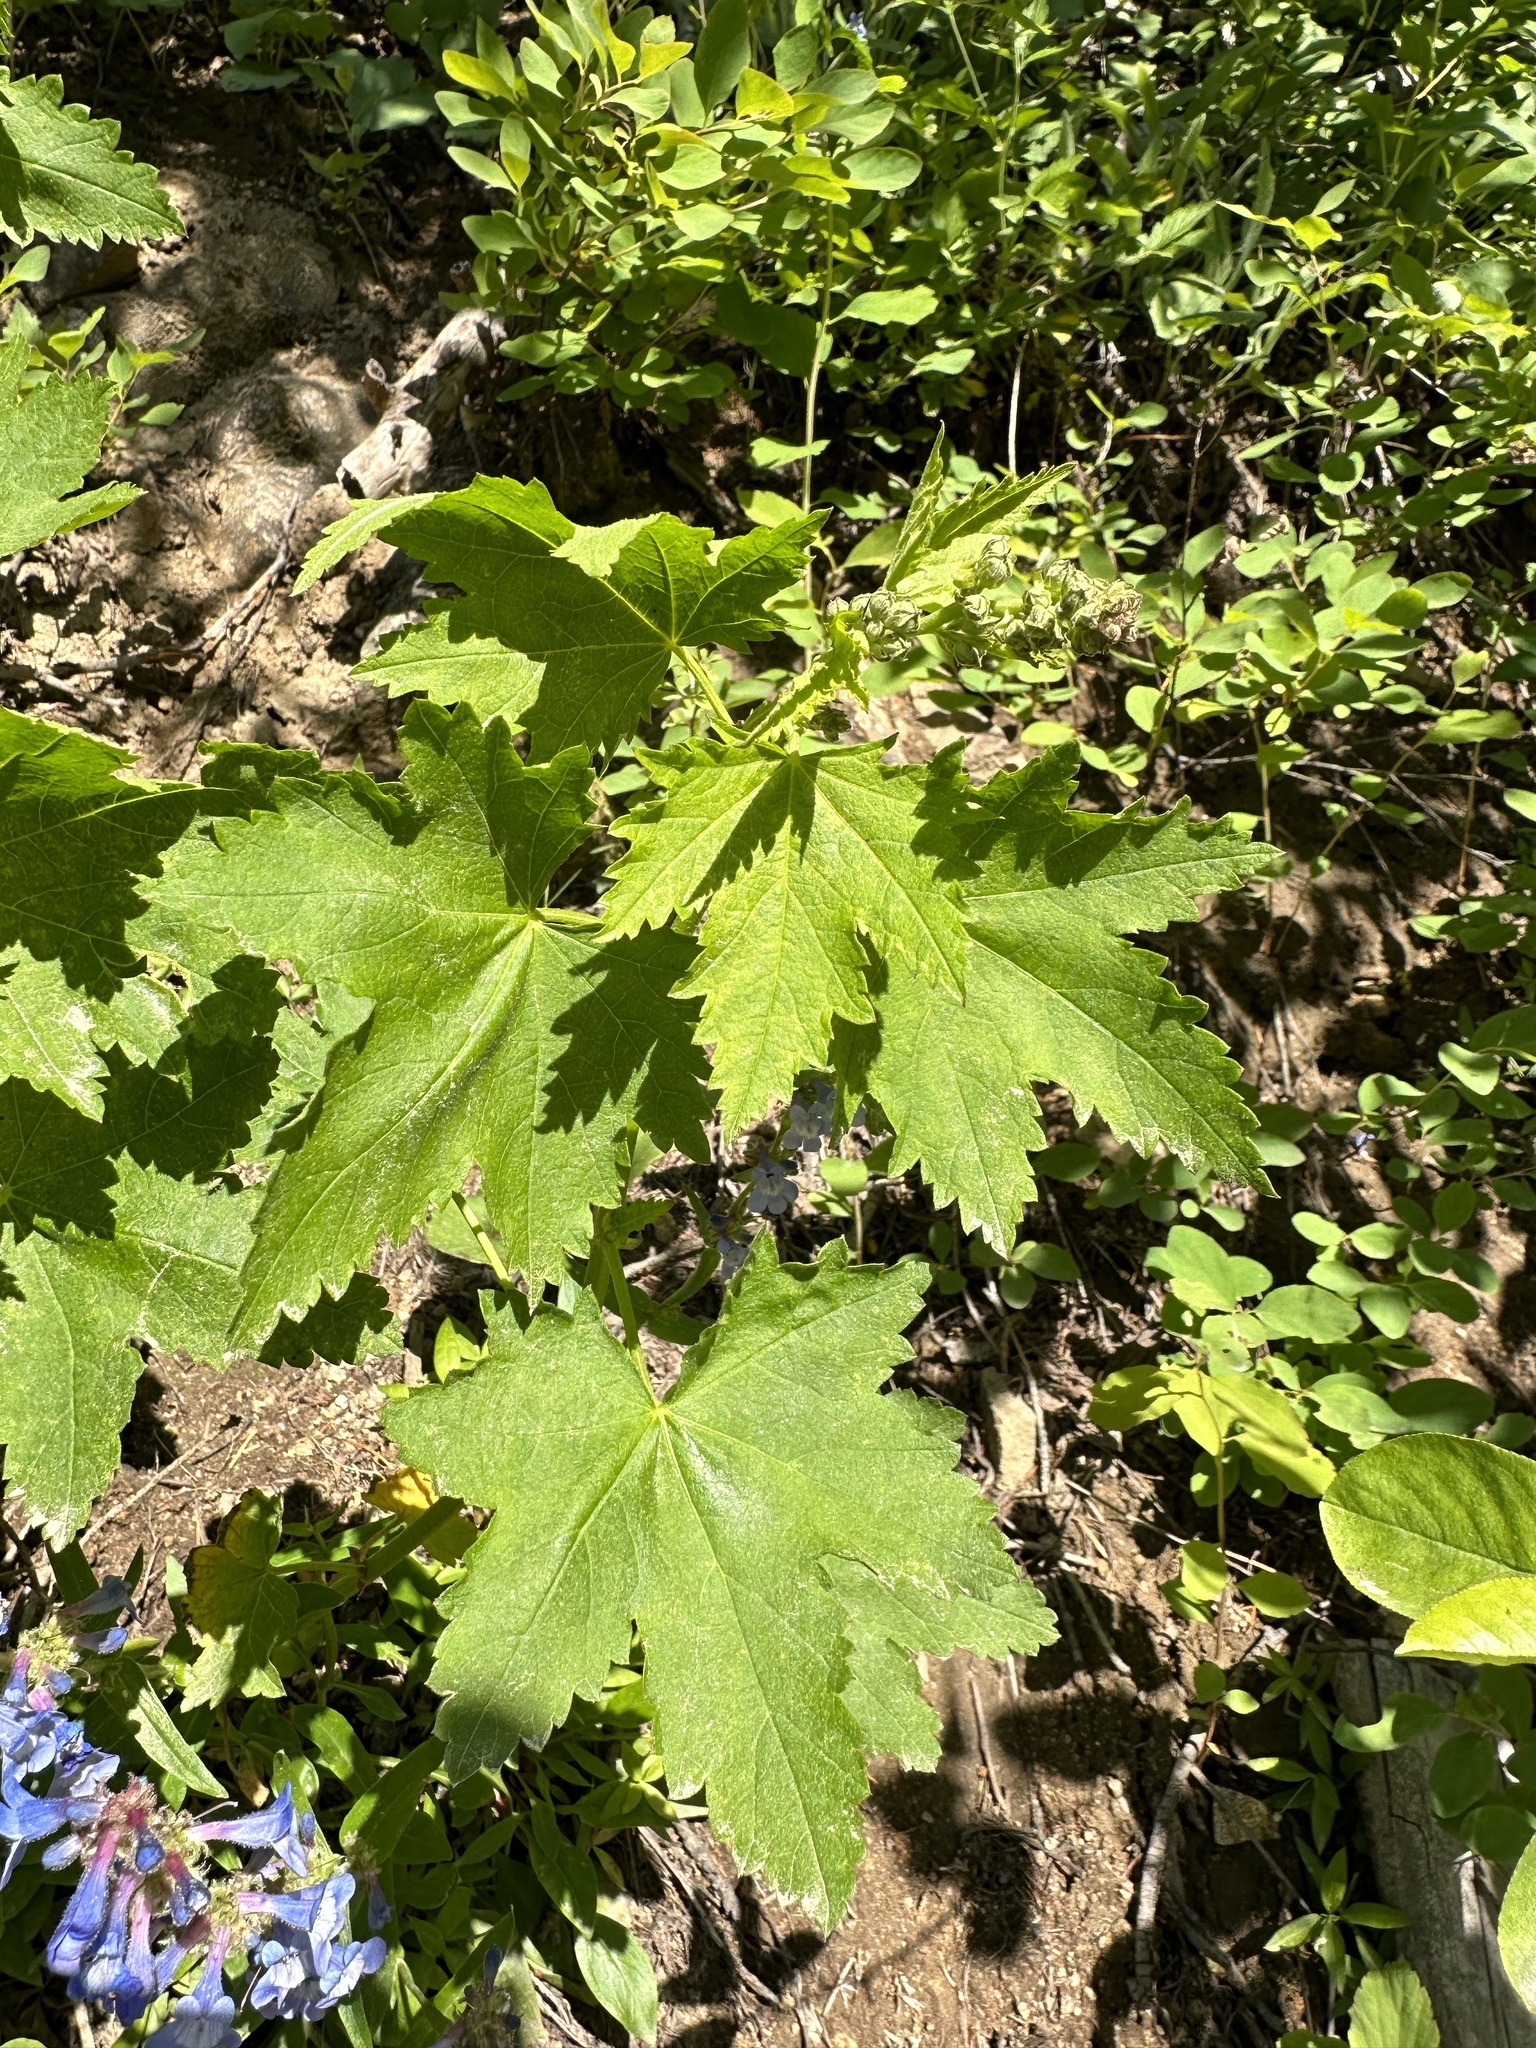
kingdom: Plantae
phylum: Tracheophyta
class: Magnoliopsida
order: Malvales
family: Malvaceae
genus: Iliamna
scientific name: Iliamna rivularis
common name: Wild hollyhock
